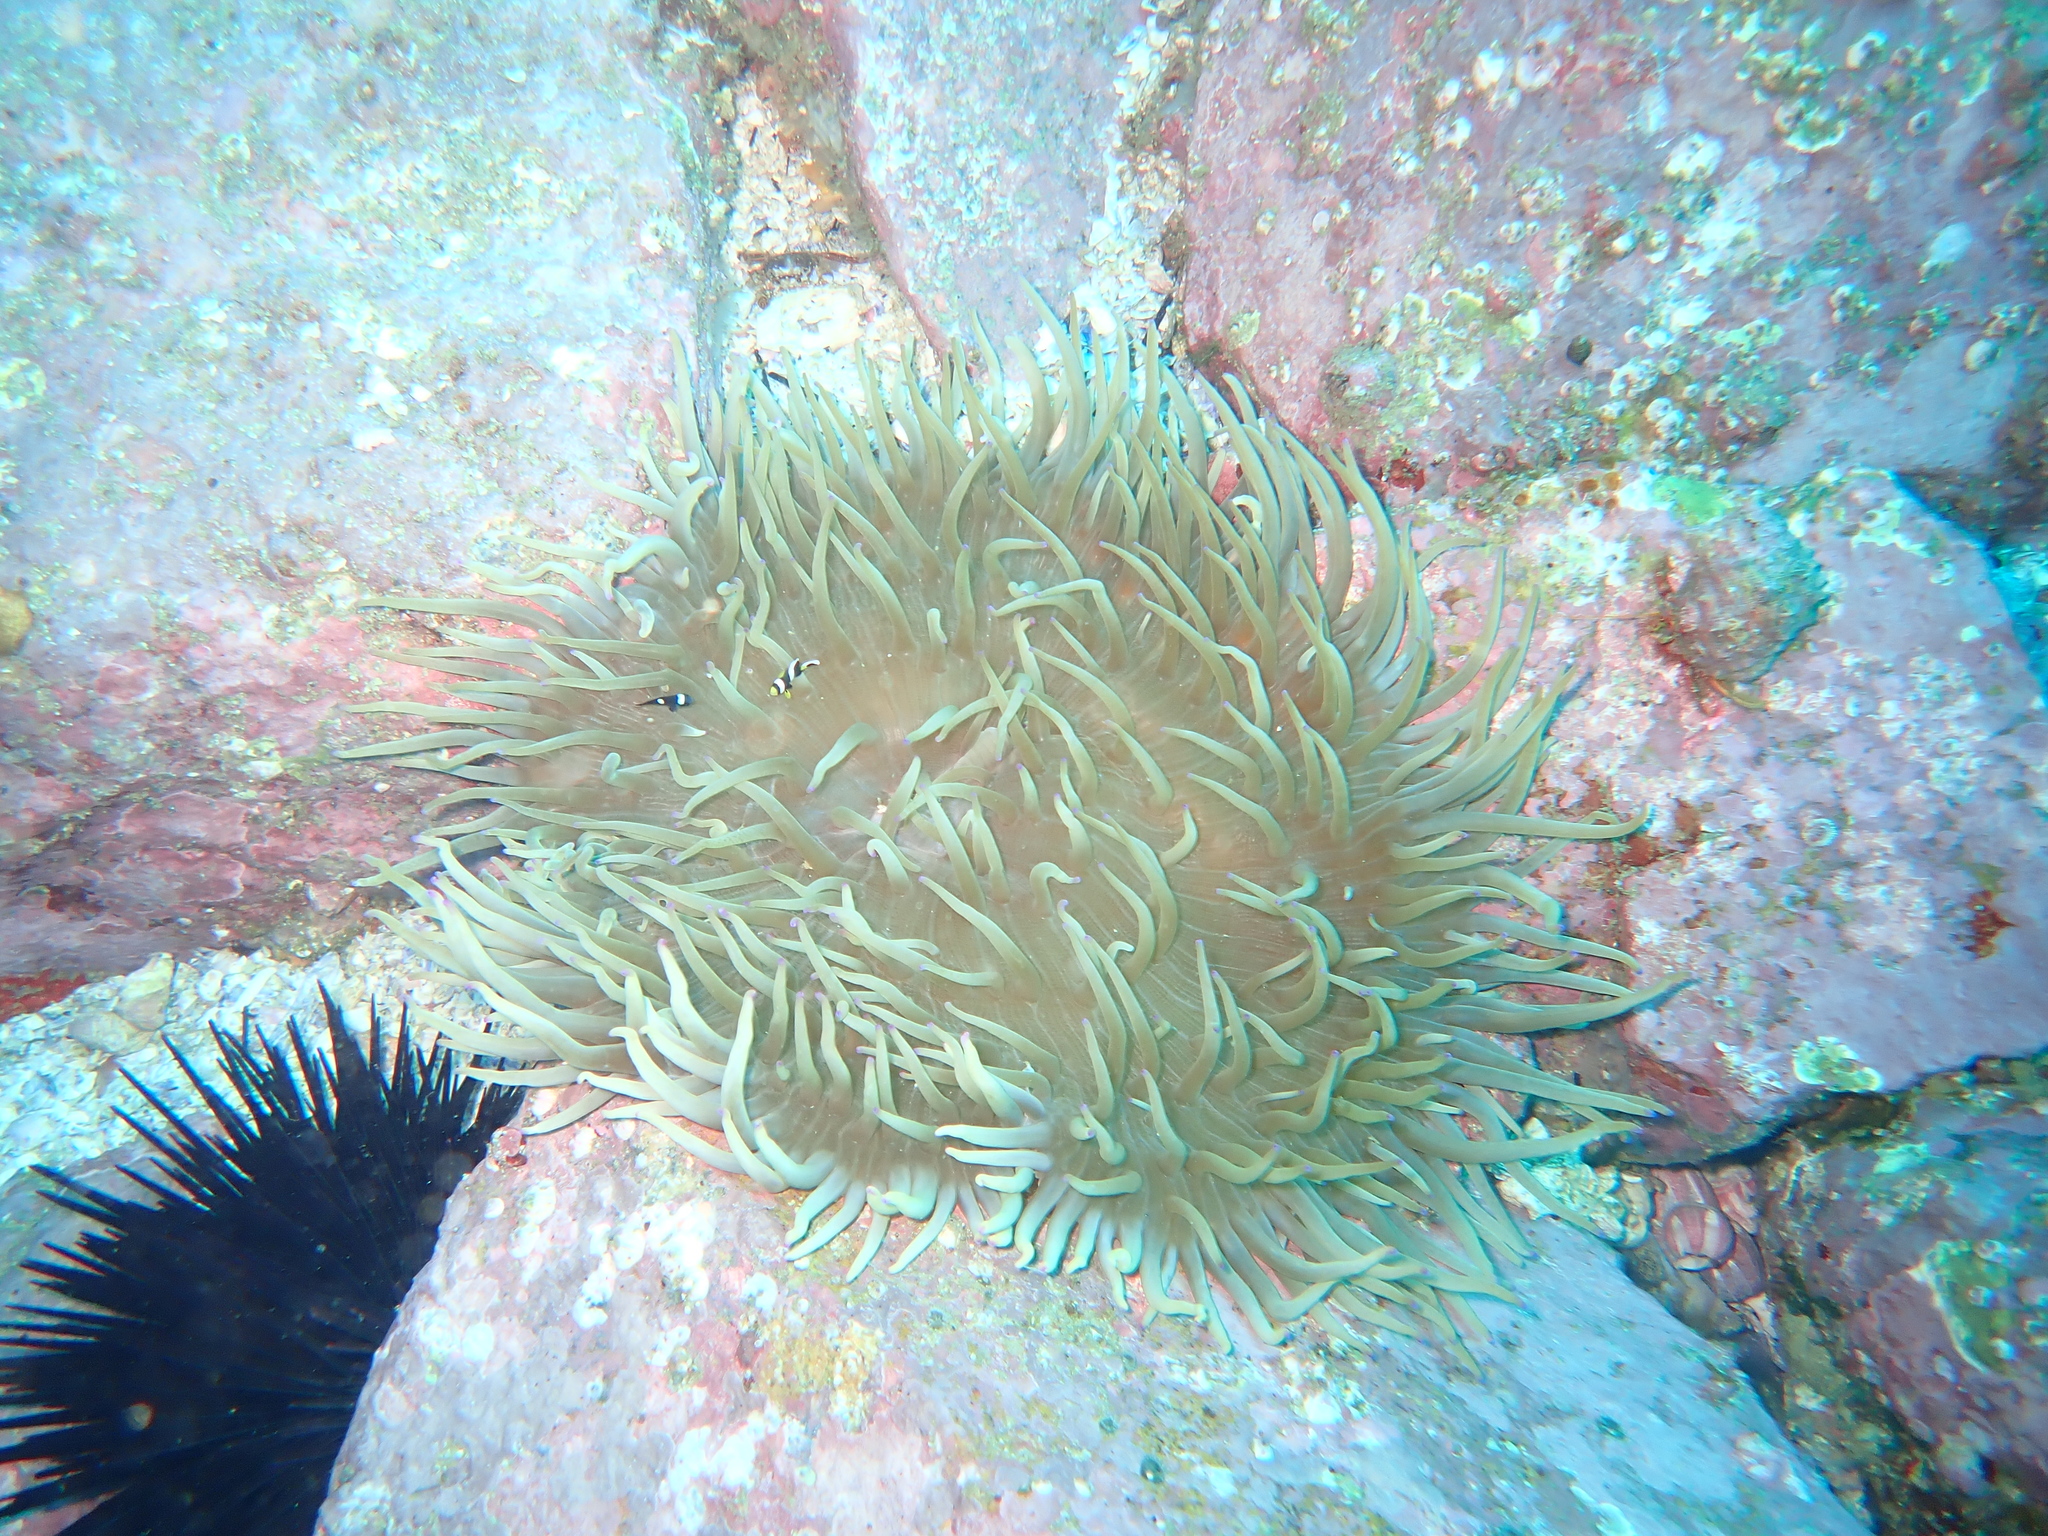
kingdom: Animalia
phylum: Cnidaria
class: Anthozoa
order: Actiniaria
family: Actiniidae
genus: Entacmaea
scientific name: Entacmaea quadricolor
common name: Bulb tentacle sea anemone
